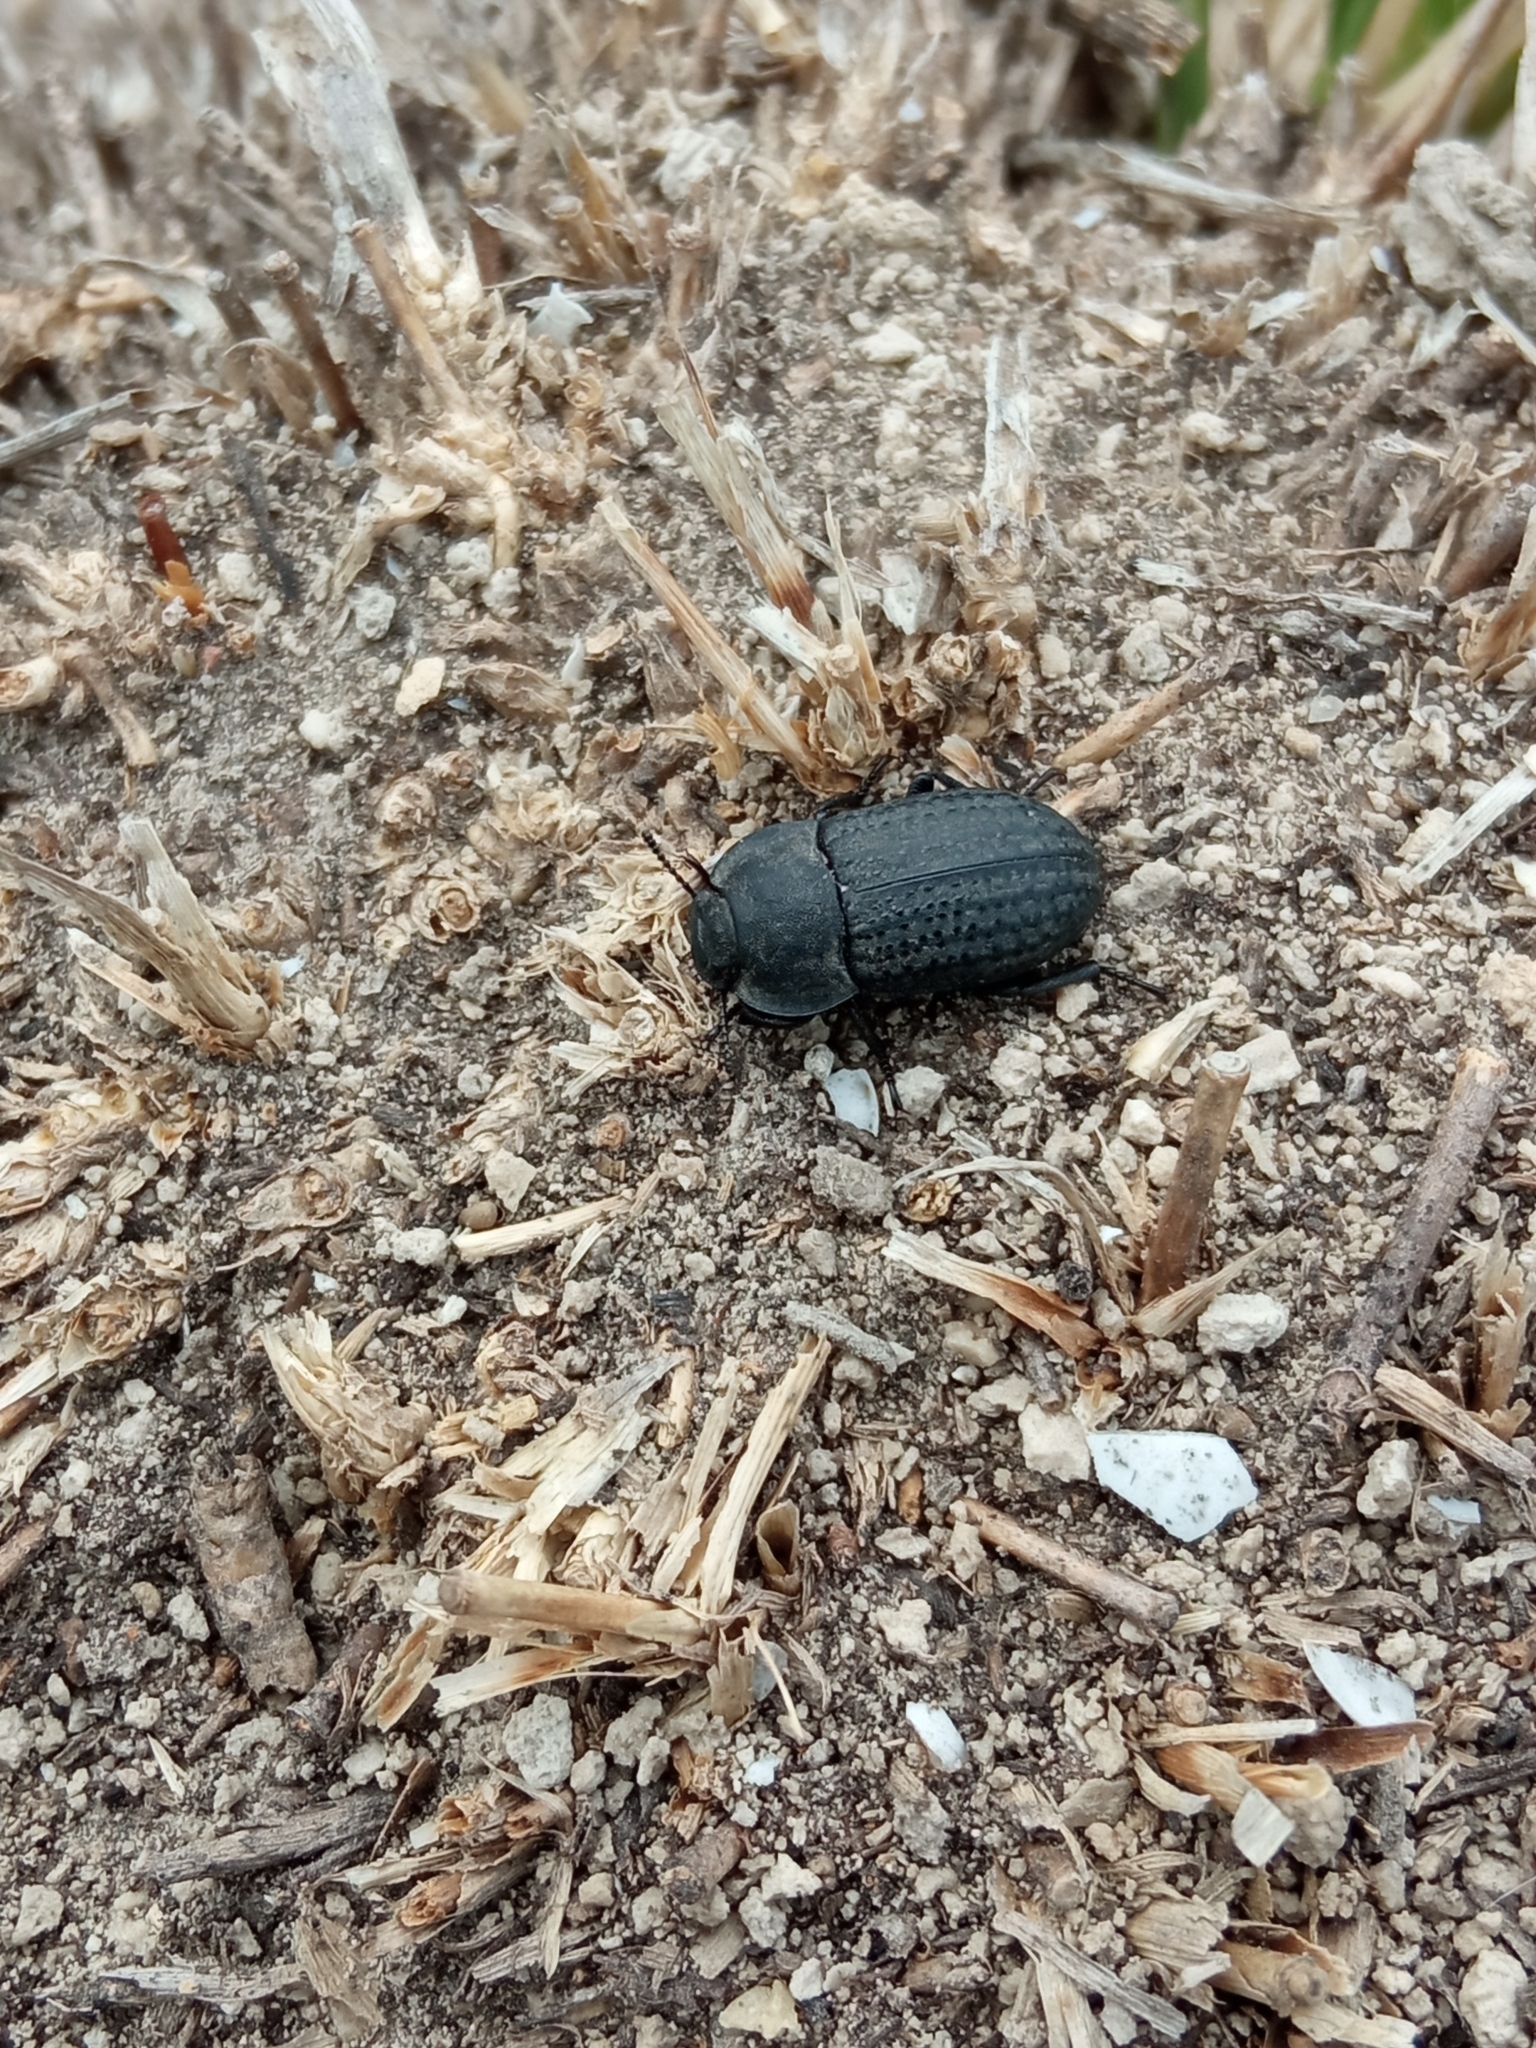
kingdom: Animalia
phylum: Arthropoda
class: Insecta
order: Coleoptera
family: Tenebrionidae
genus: Opatrum
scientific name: Opatrum sabulosum
